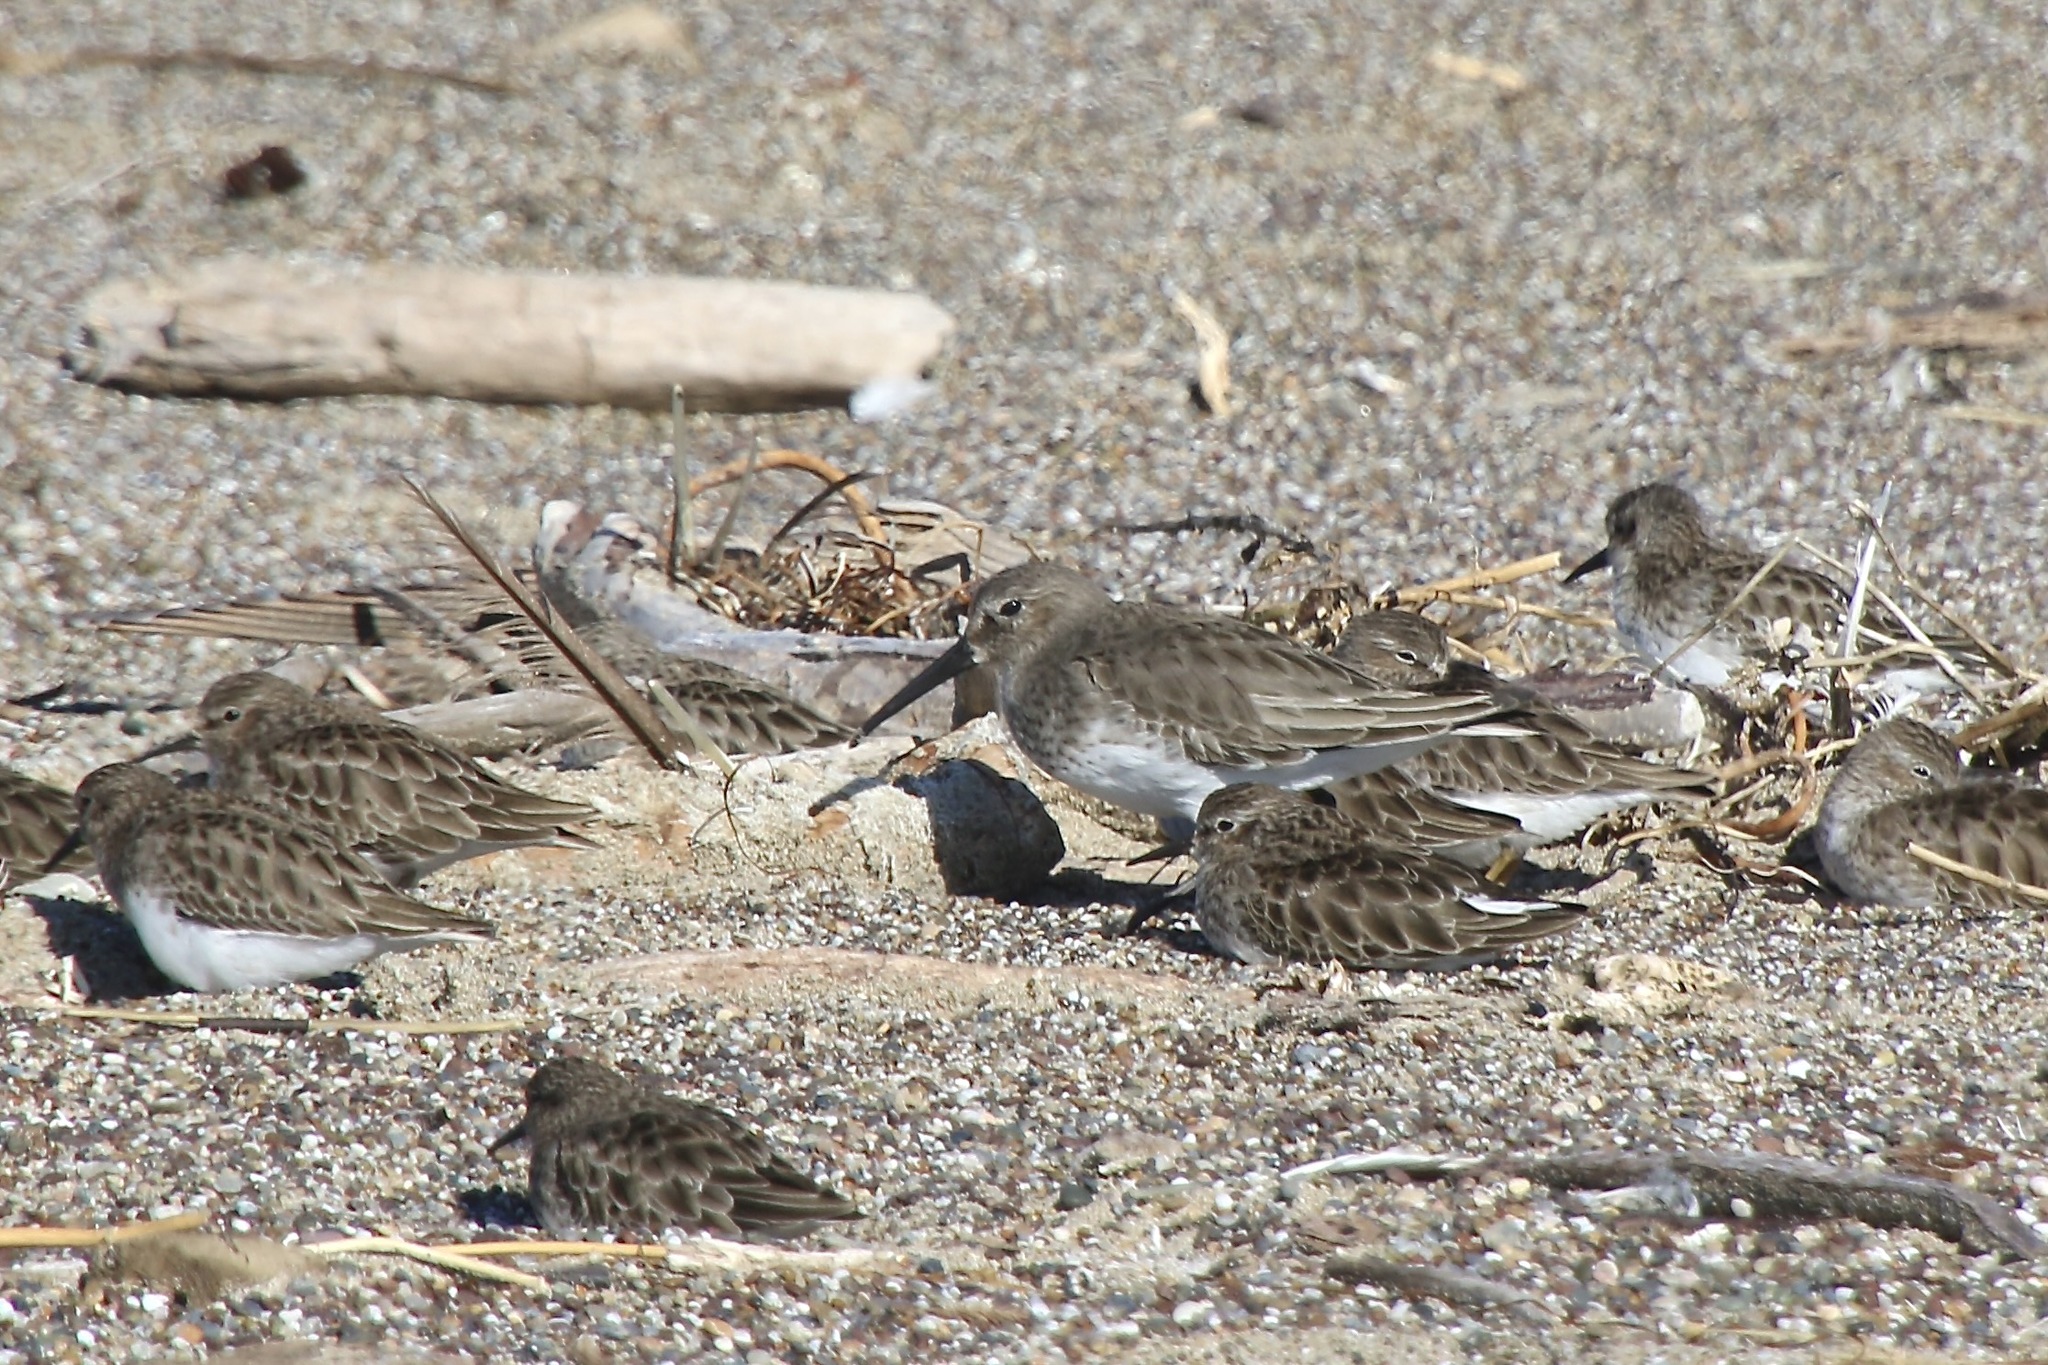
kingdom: Animalia
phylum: Chordata
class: Aves
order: Charadriiformes
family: Scolopacidae
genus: Calidris
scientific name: Calidris alpina
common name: Dunlin
